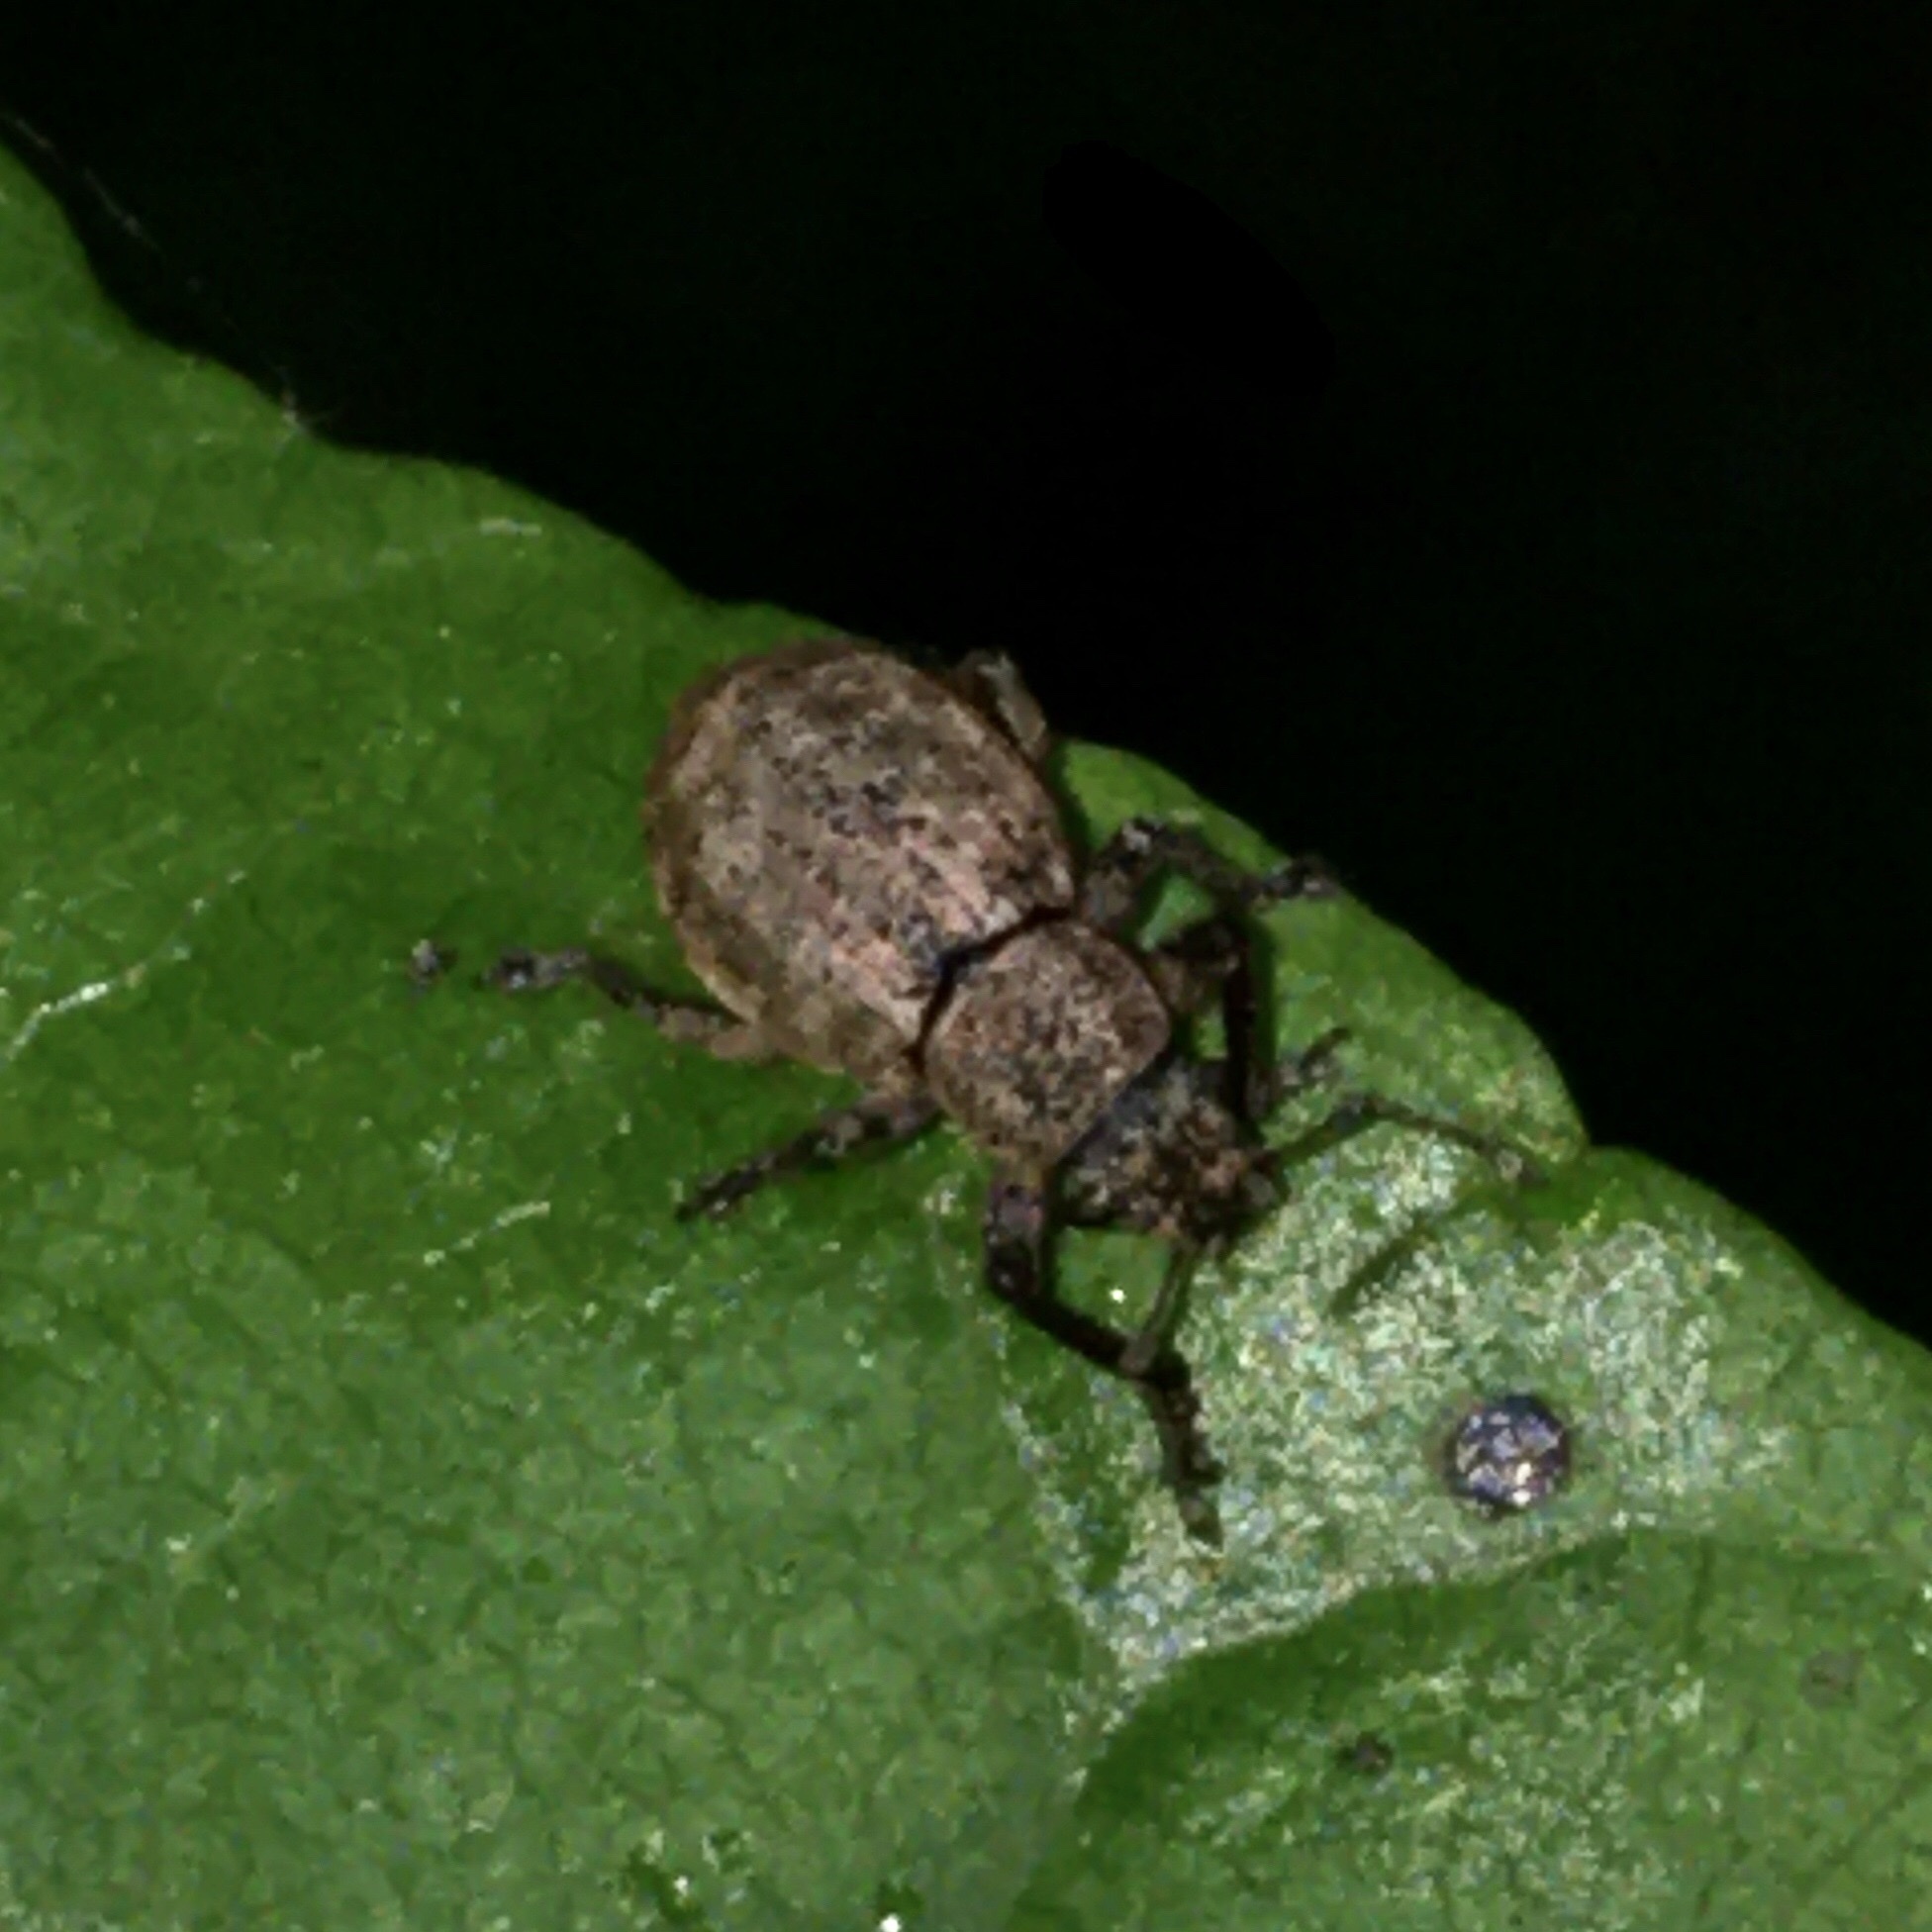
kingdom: Animalia
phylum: Arthropoda
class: Insecta
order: Coleoptera
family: Curculionidae
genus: Strophosoma
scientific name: Strophosoma capitatum
